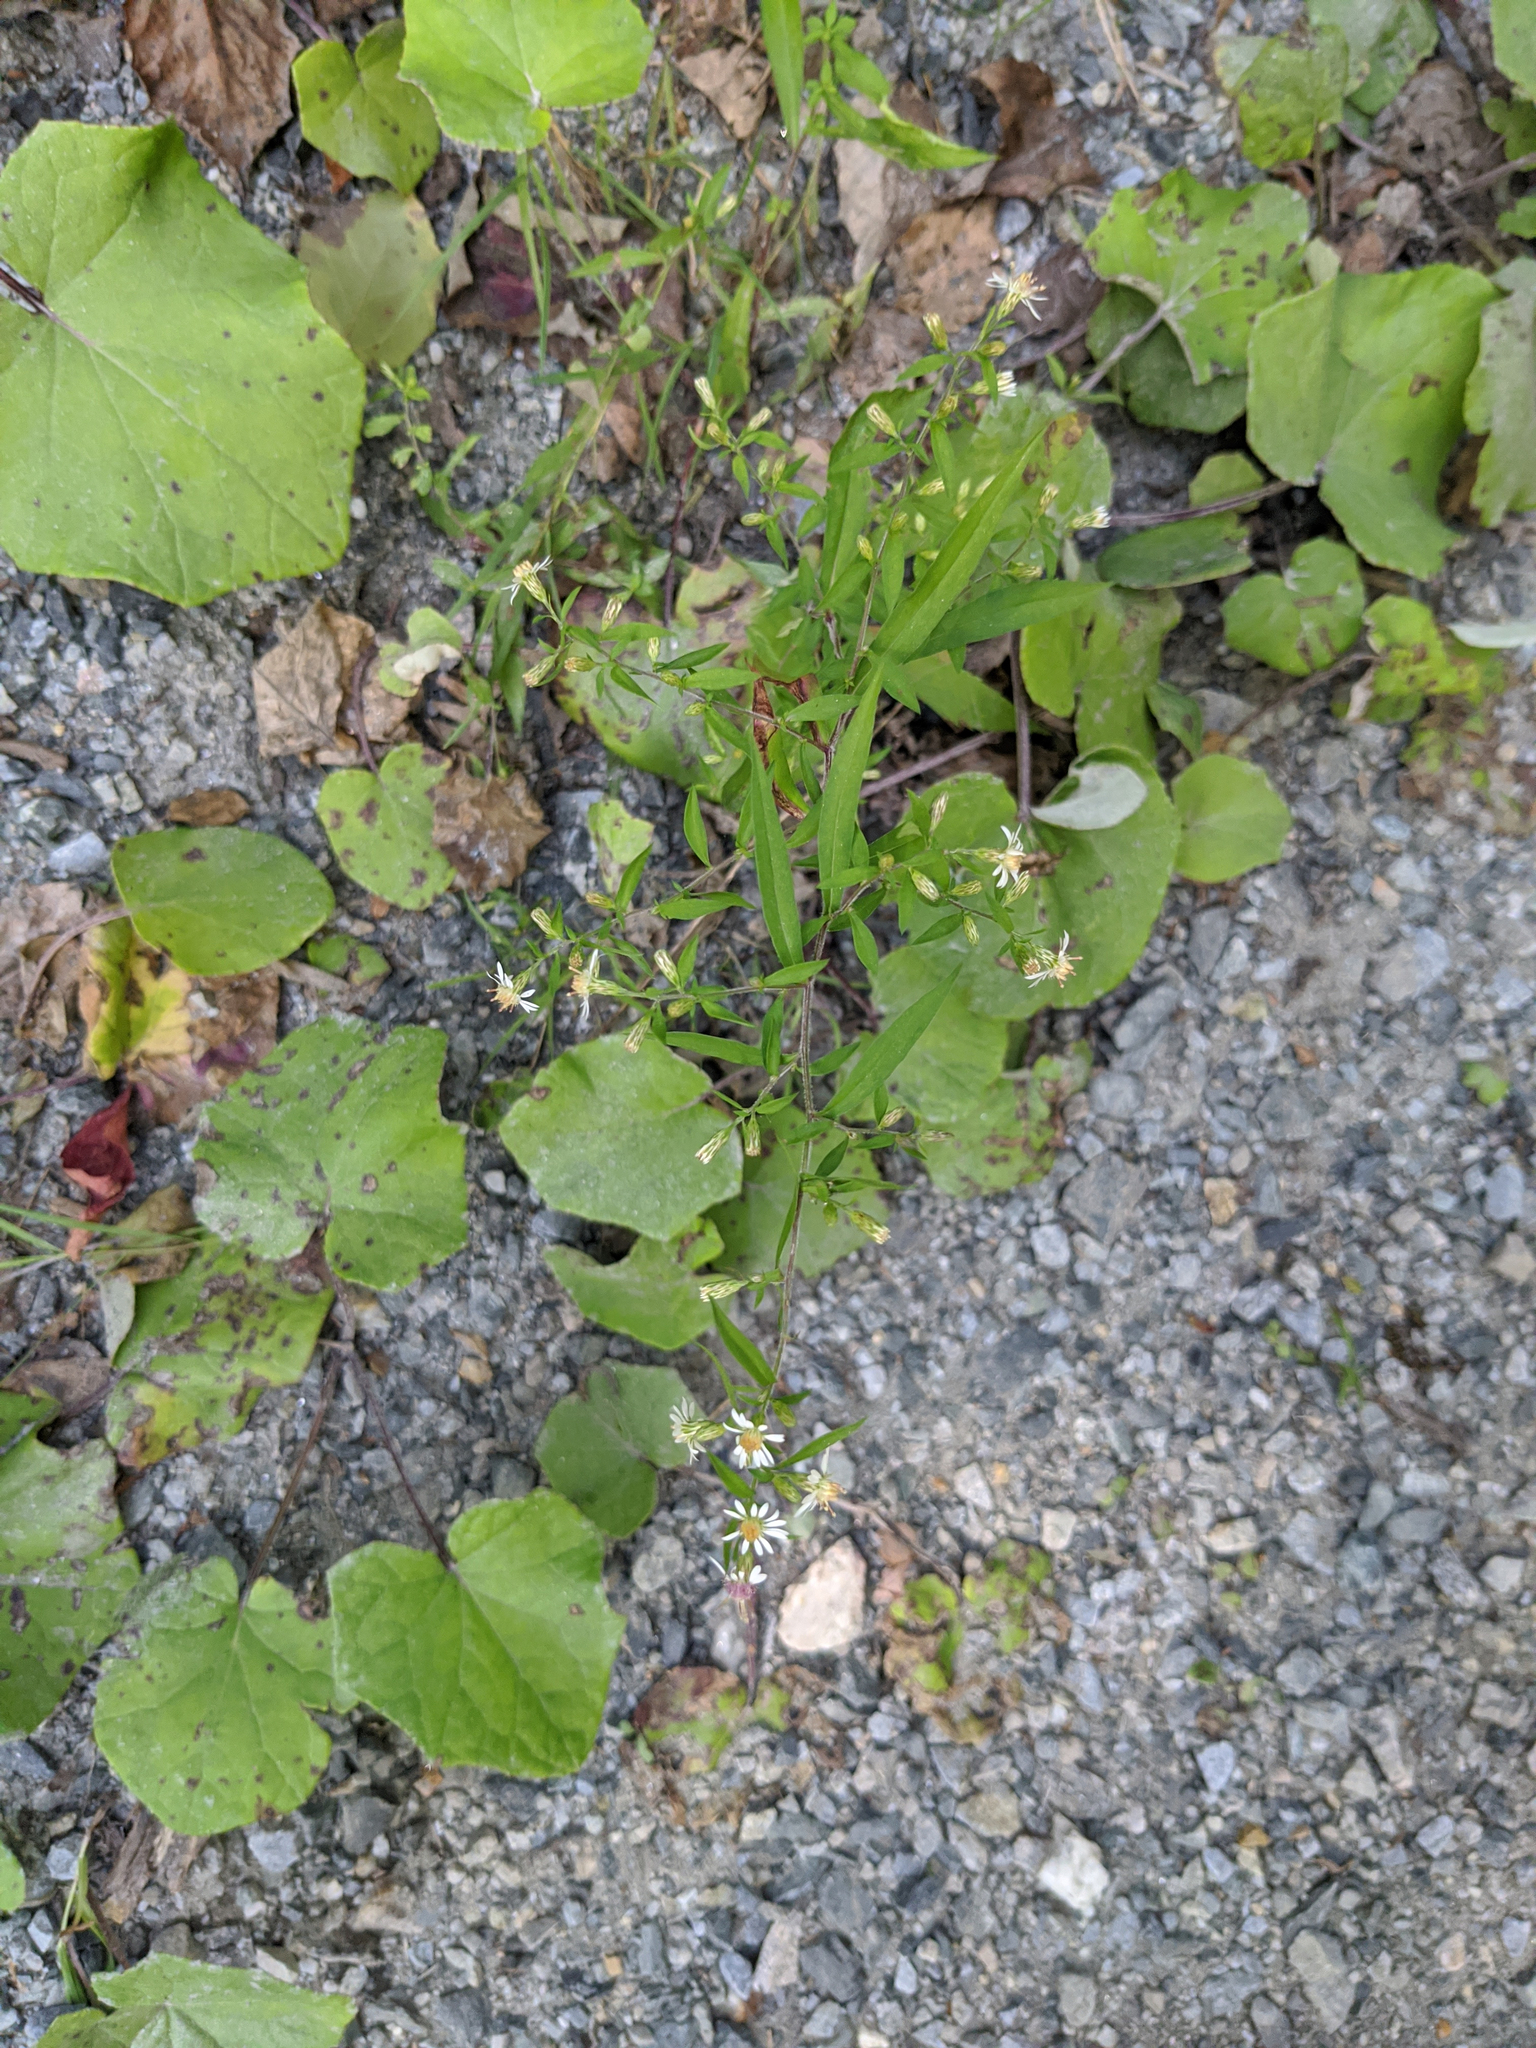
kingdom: Plantae
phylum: Tracheophyta
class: Magnoliopsida
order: Asterales
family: Asteraceae
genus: Symphyotrichum
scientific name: Symphyotrichum lateriflorum
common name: Calico aster
